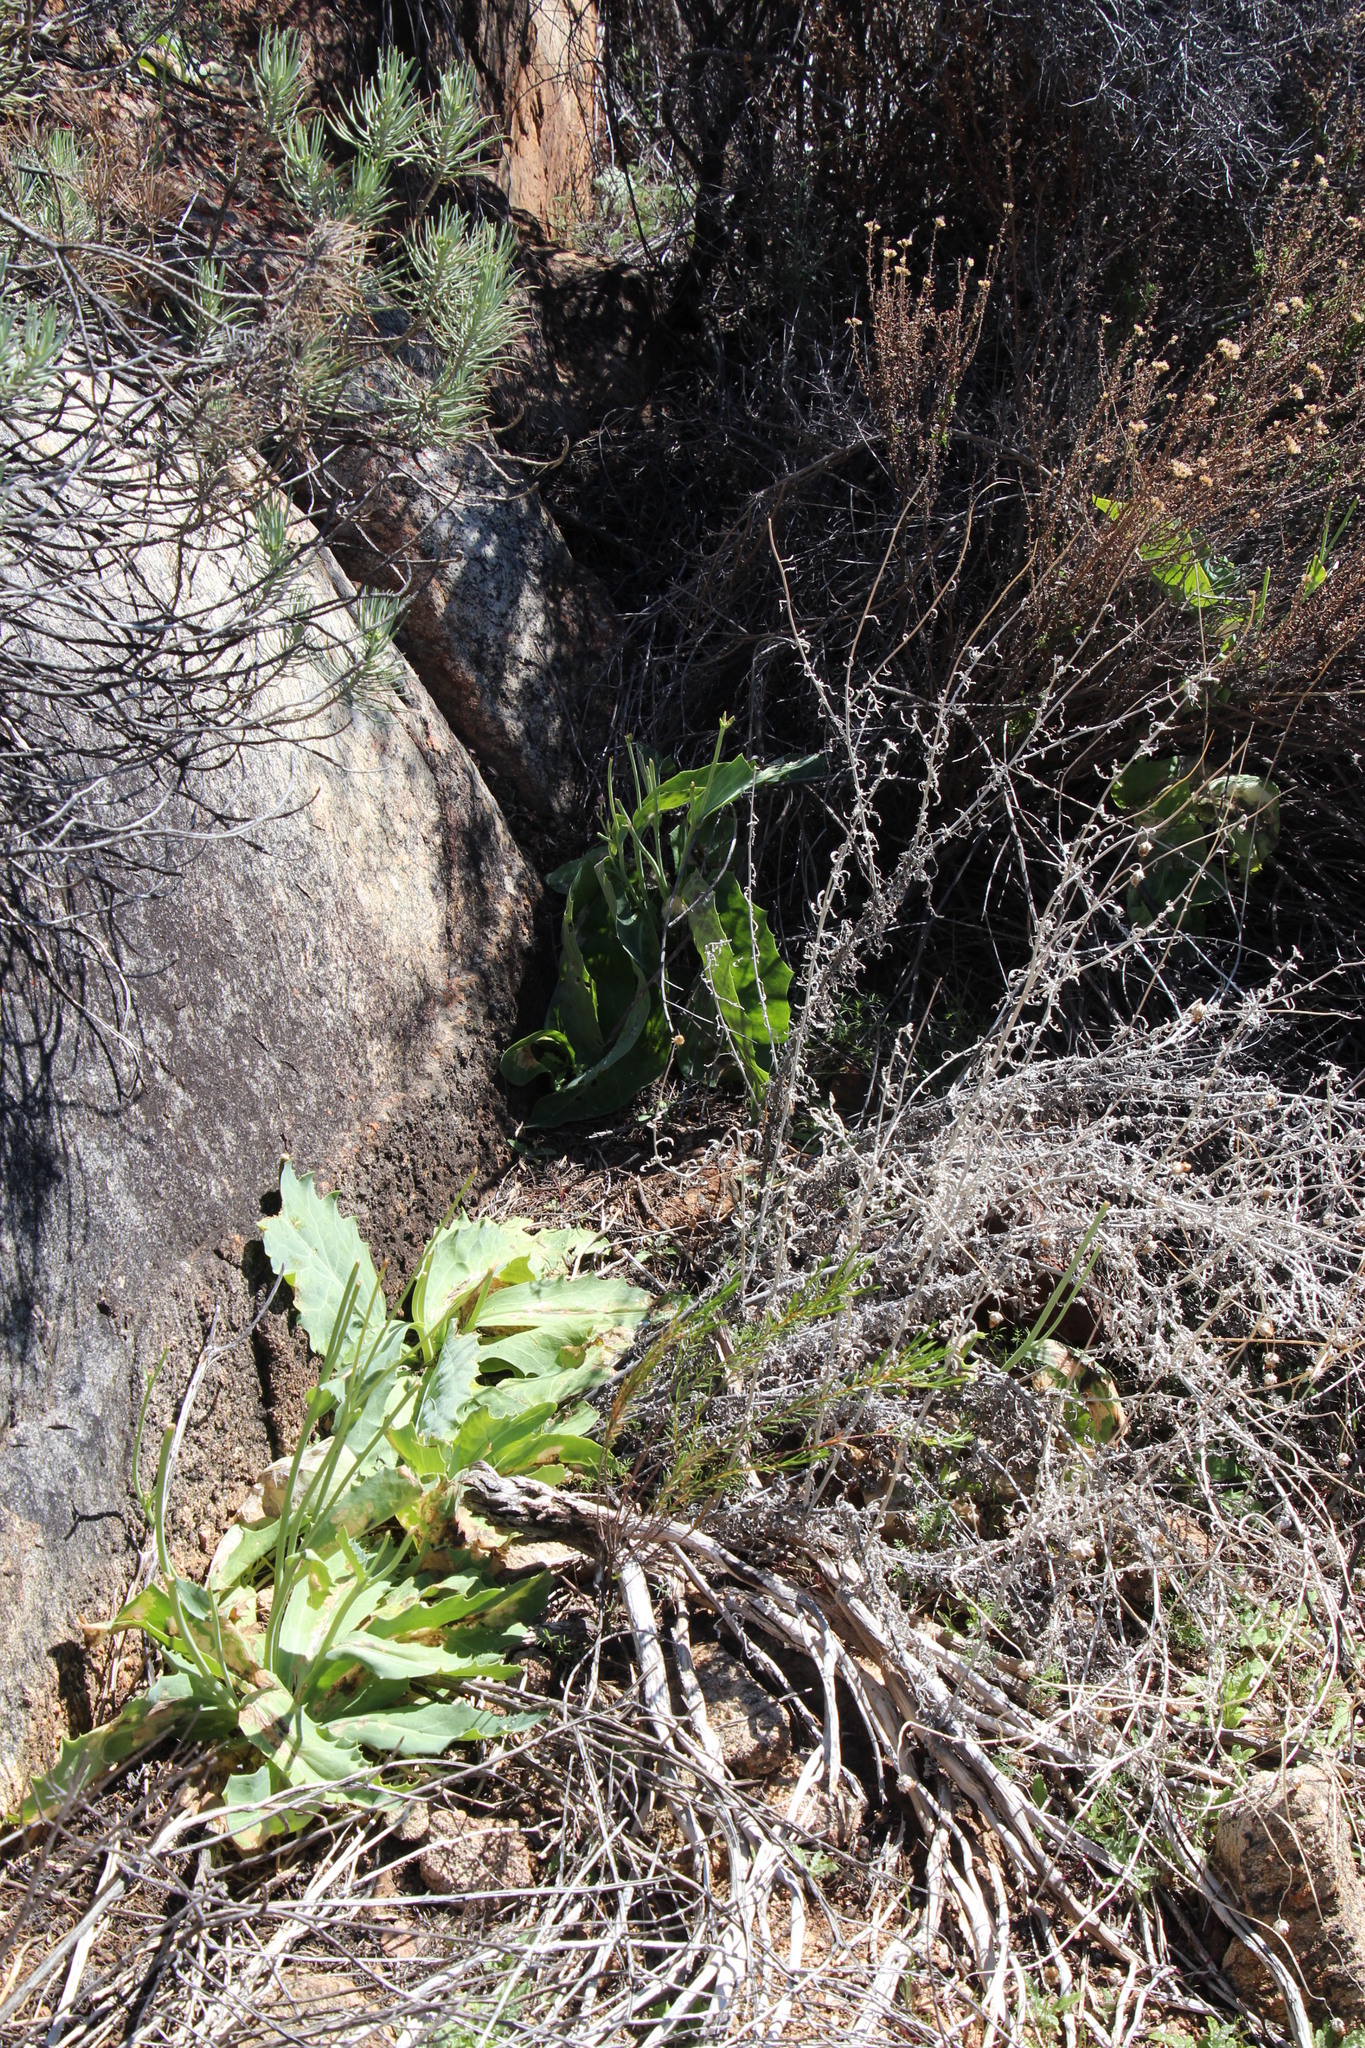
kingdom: Plantae
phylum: Tracheophyta
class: Magnoliopsida
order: Asterales
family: Asteraceae
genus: Othonna
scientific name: Othonna macrophylla
